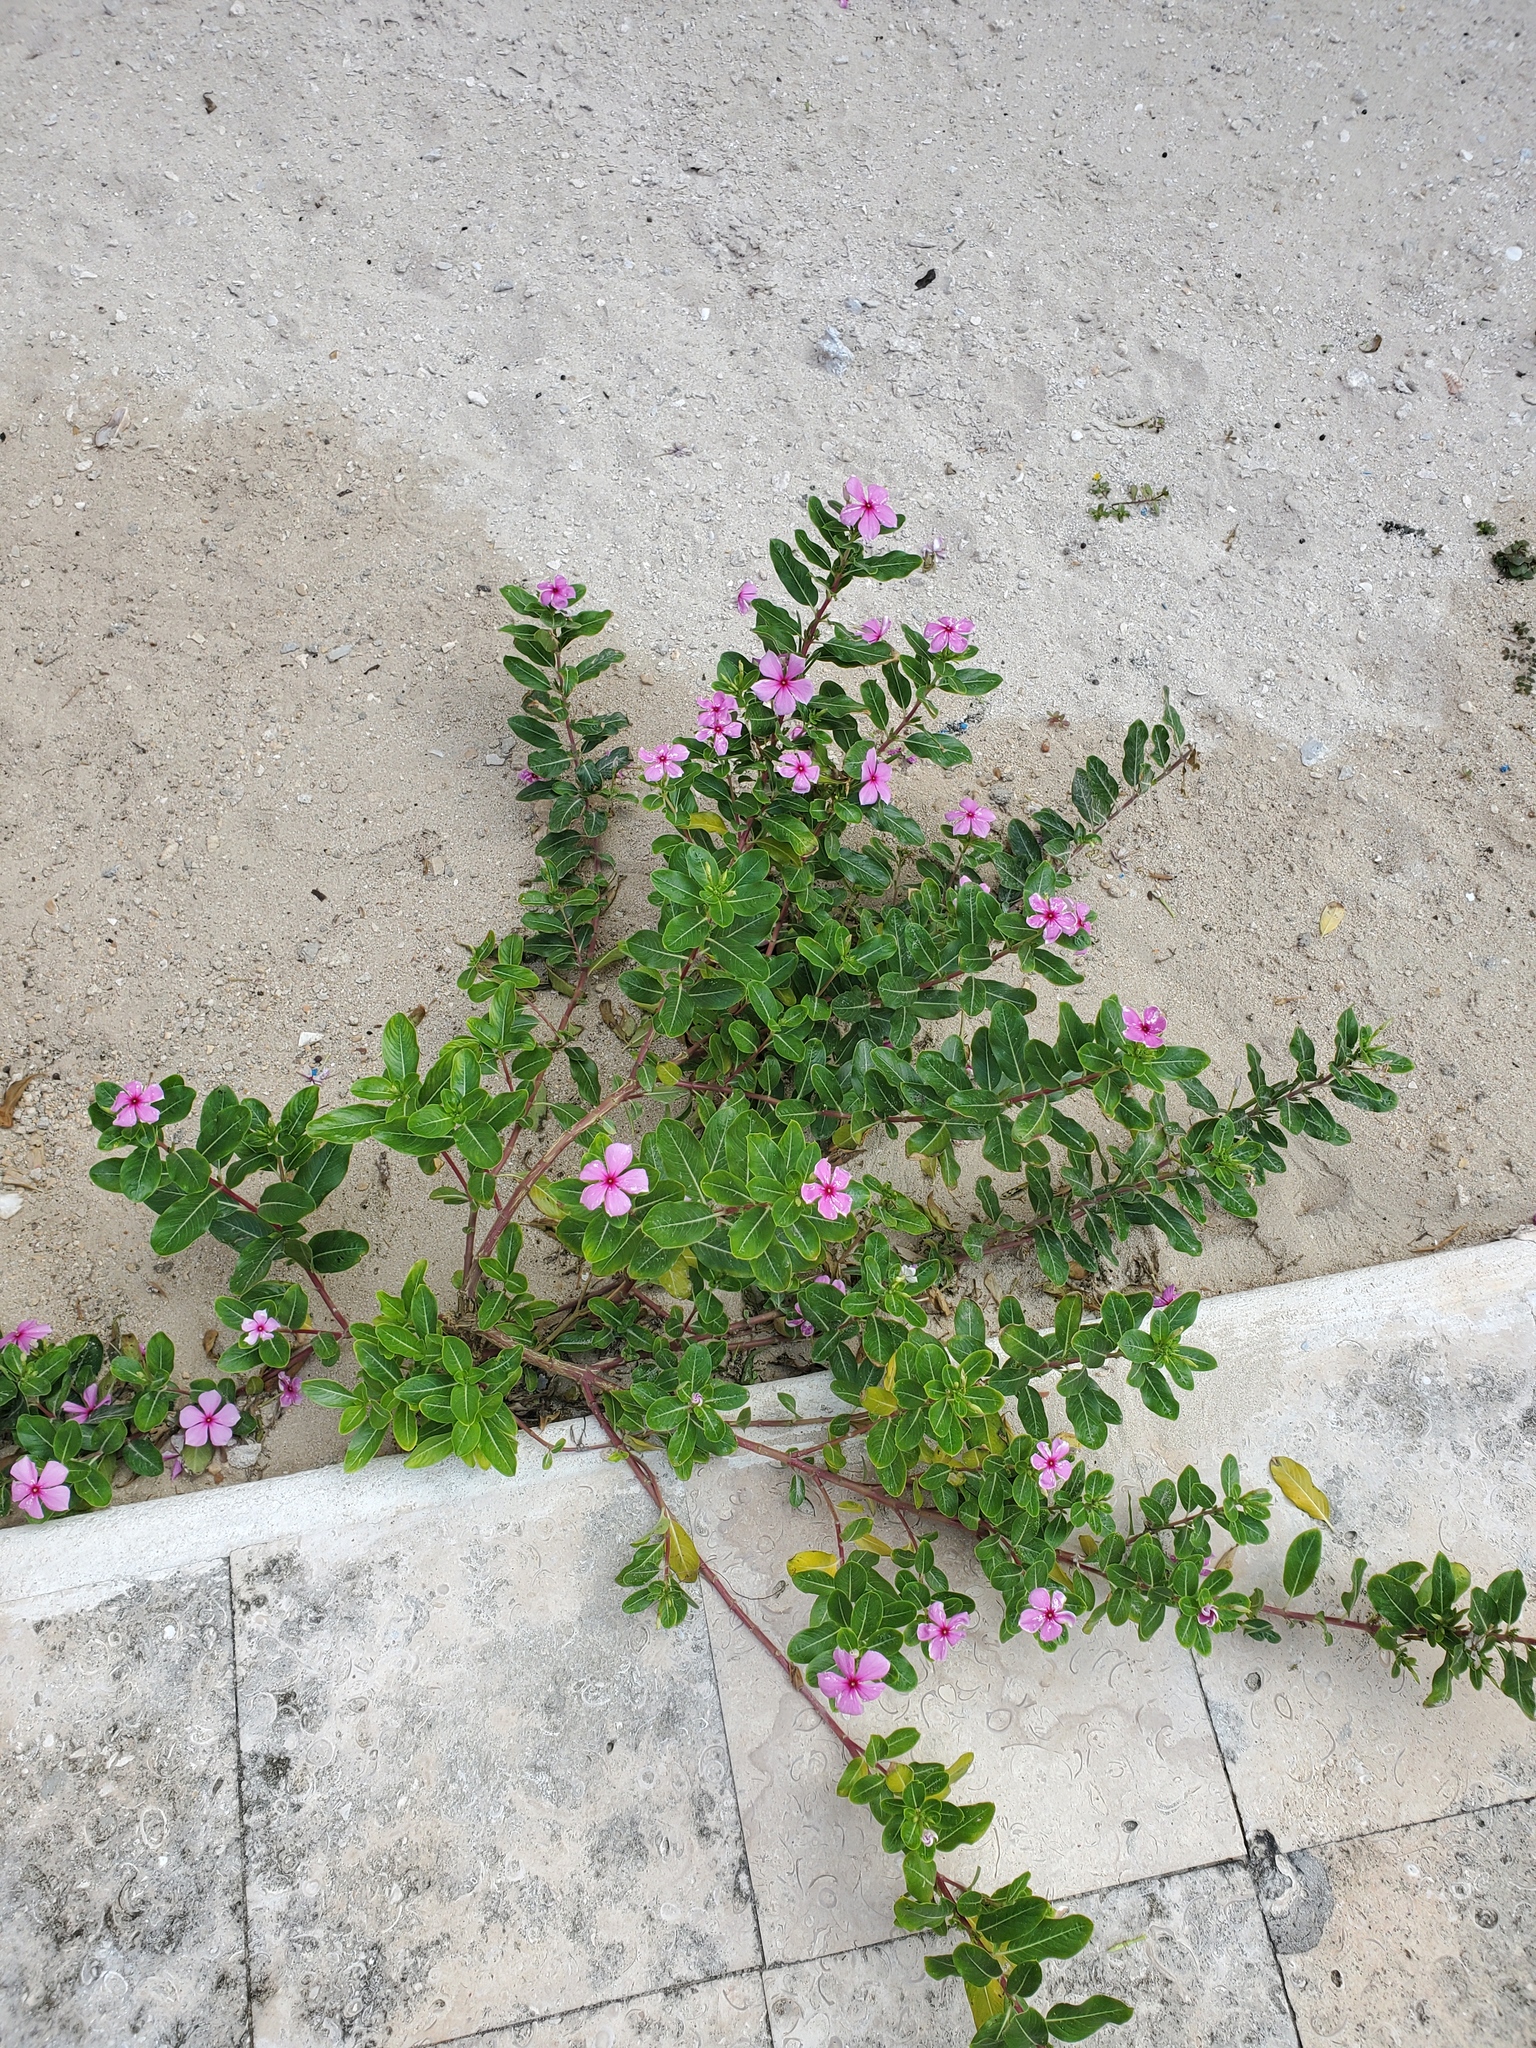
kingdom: Plantae
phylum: Tracheophyta
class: Magnoliopsida
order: Gentianales
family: Apocynaceae
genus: Catharanthus
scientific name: Catharanthus roseus
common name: Madagascar periwinkle
